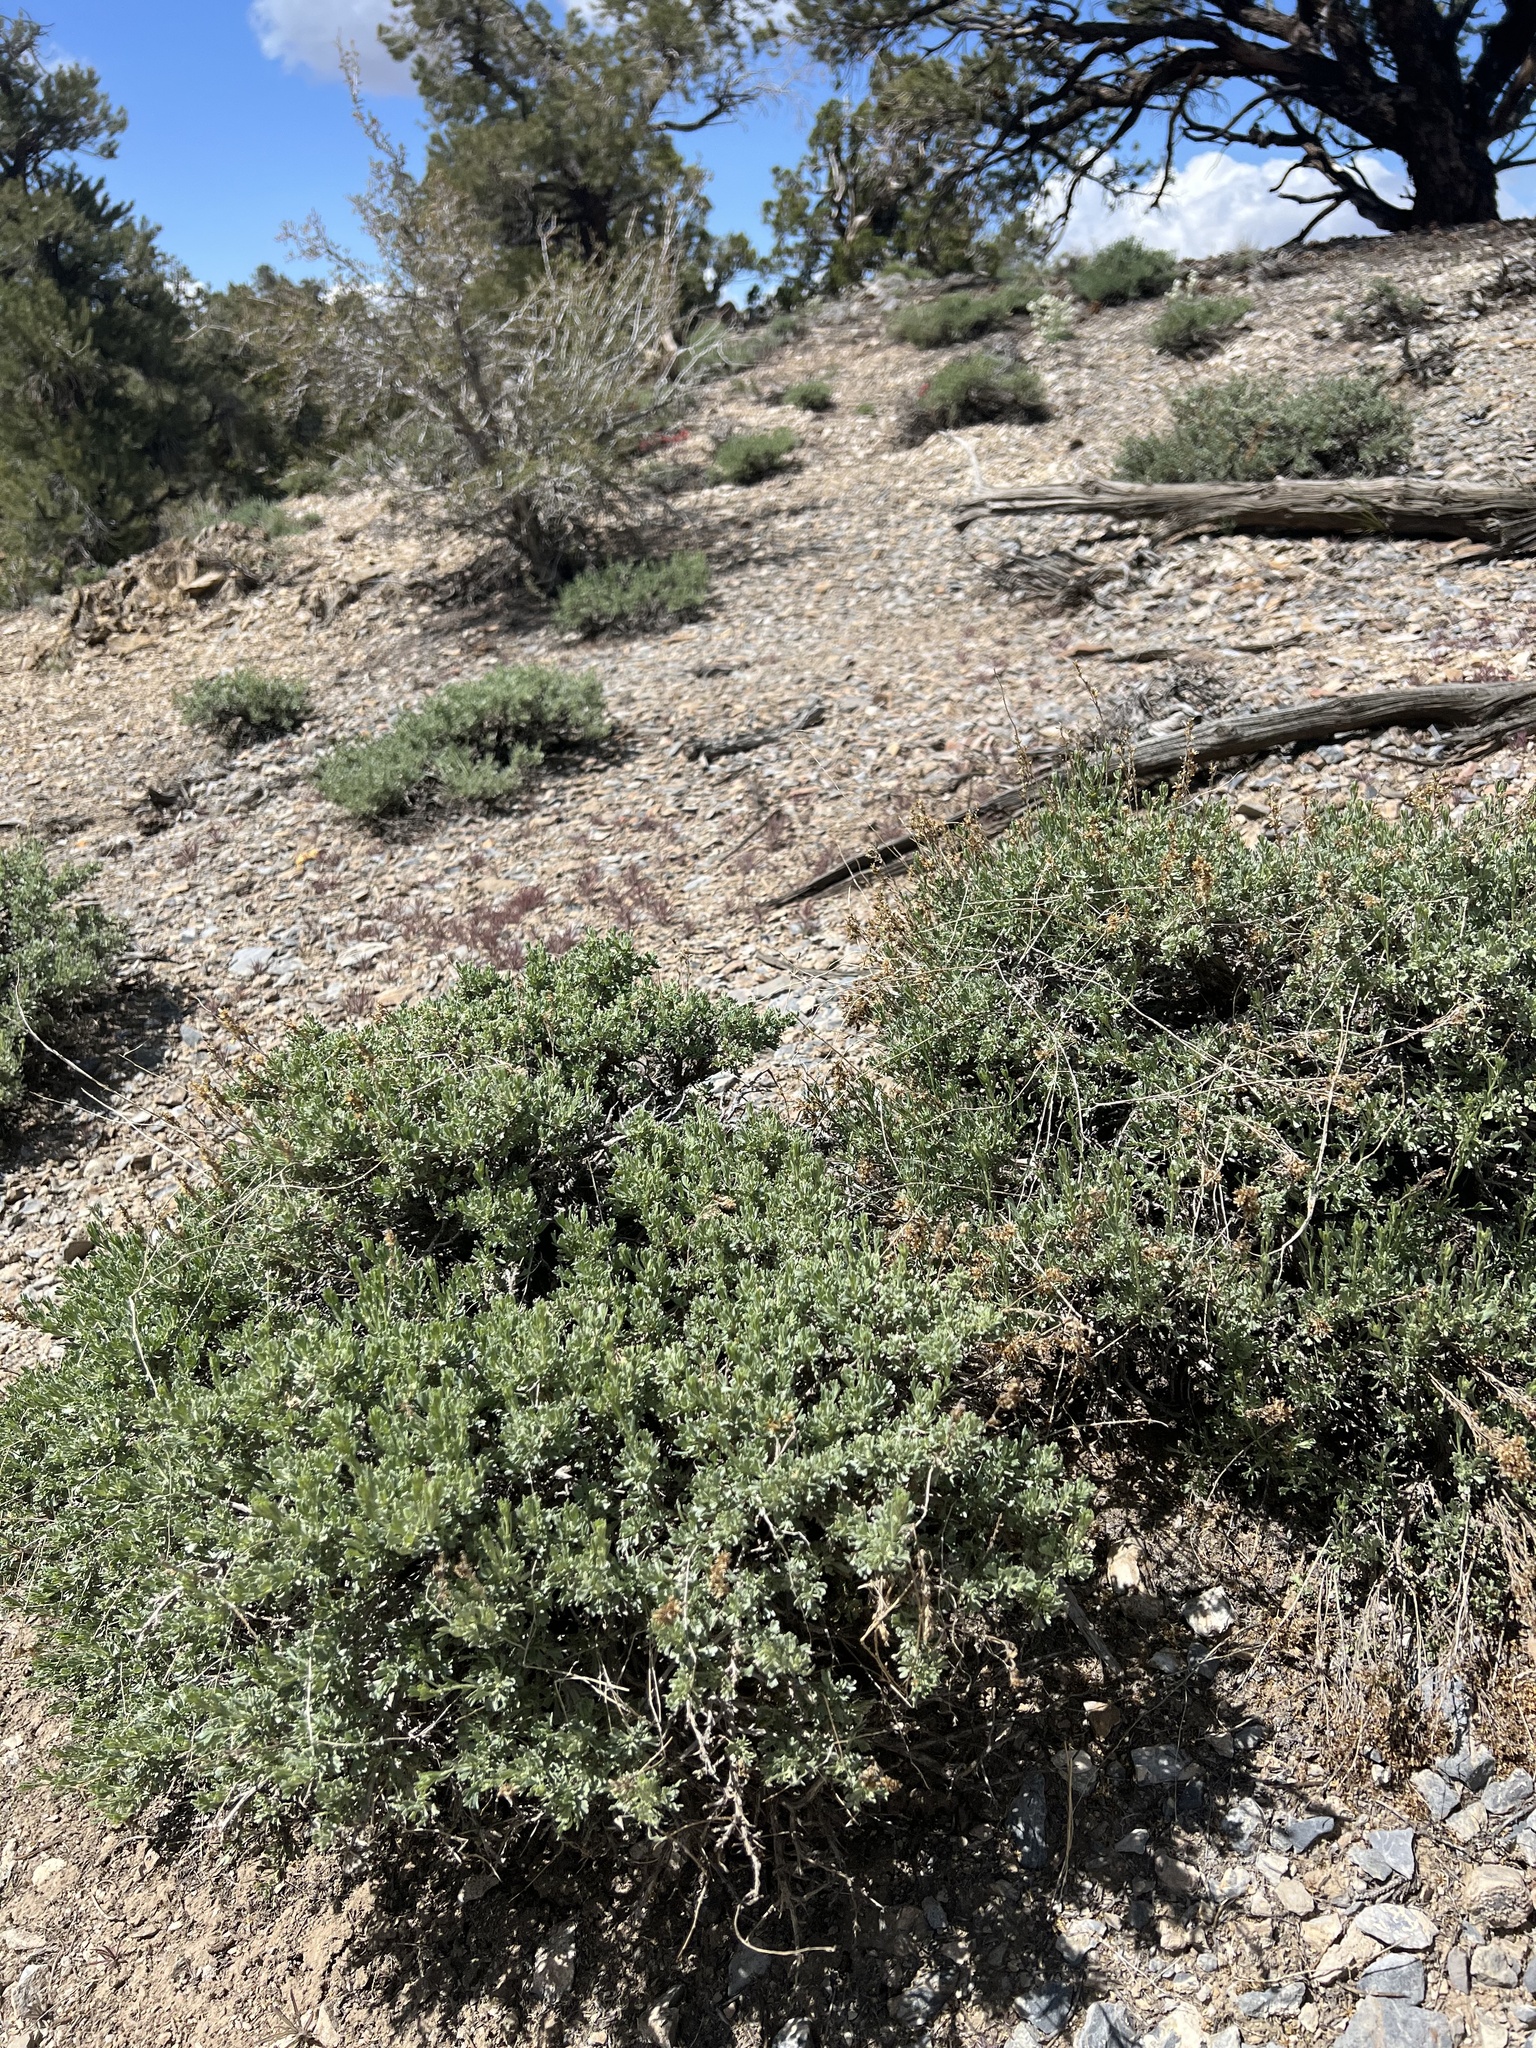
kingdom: Plantae
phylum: Tracheophyta
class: Magnoliopsida
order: Asterales
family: Asteraceae
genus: Artemisia
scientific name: Artemisia nova
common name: Black-sage
